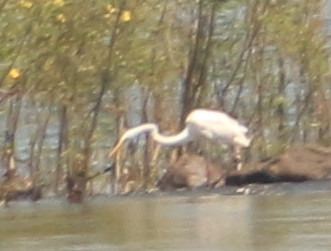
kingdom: Animalia
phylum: Chordata
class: Aves
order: Pelecaniformes
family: Ardeidae
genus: Ardea
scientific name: Ardea alba
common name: Great egret
